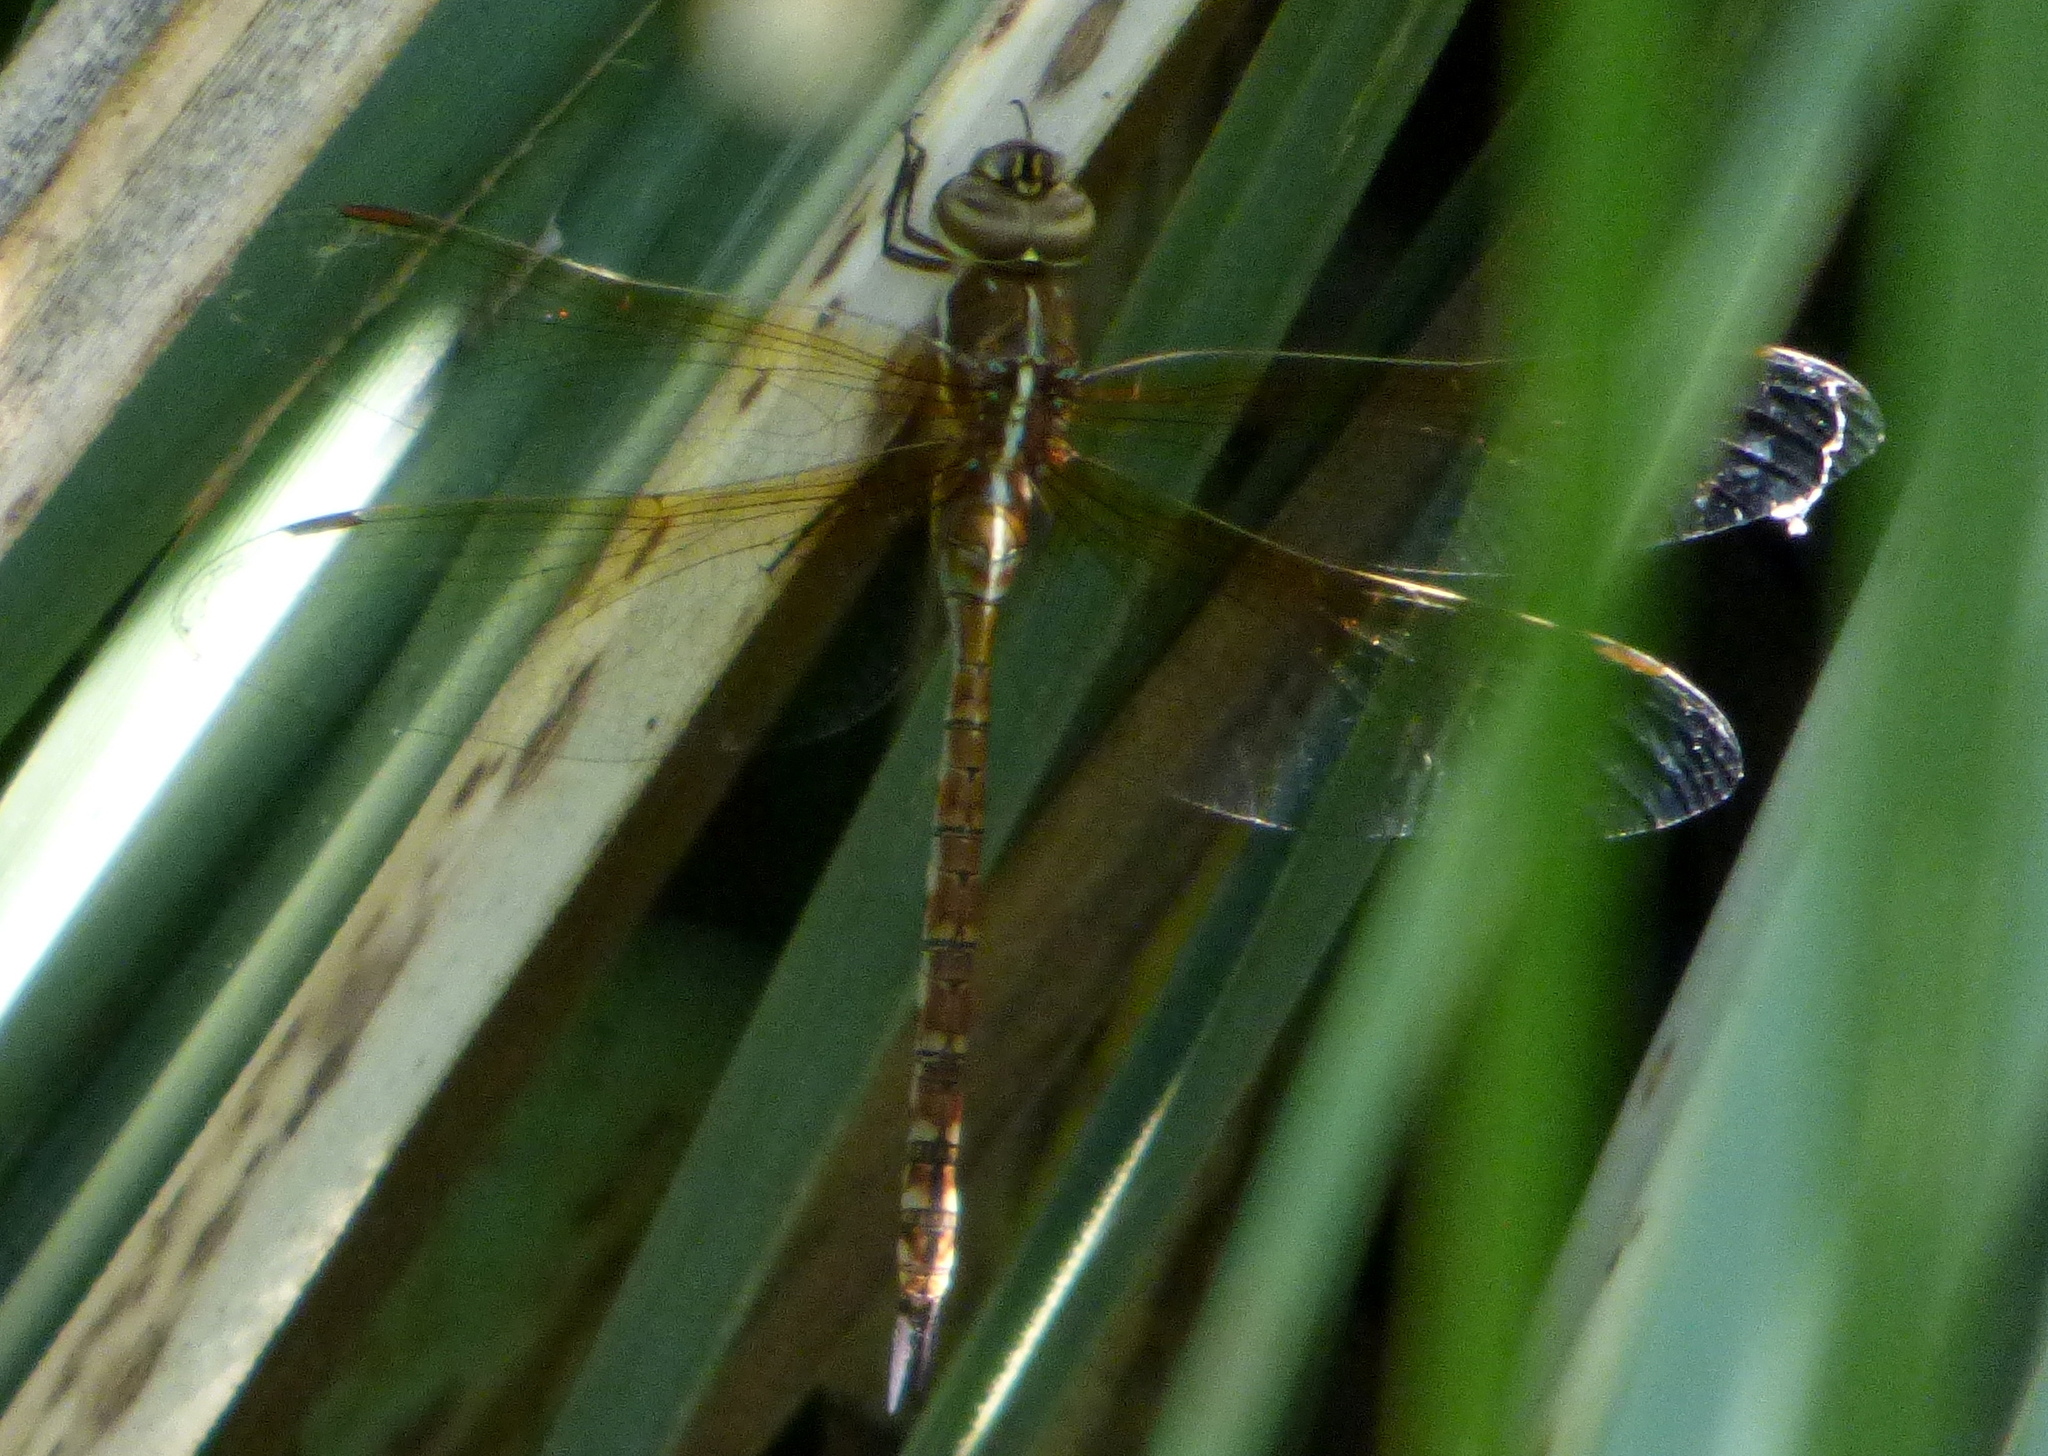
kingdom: Animalia
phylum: Arthropoda
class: Insecta
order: Odonata
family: Aeshnidae
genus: Rhionaeschna
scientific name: Rhionaeschna bonariensis
